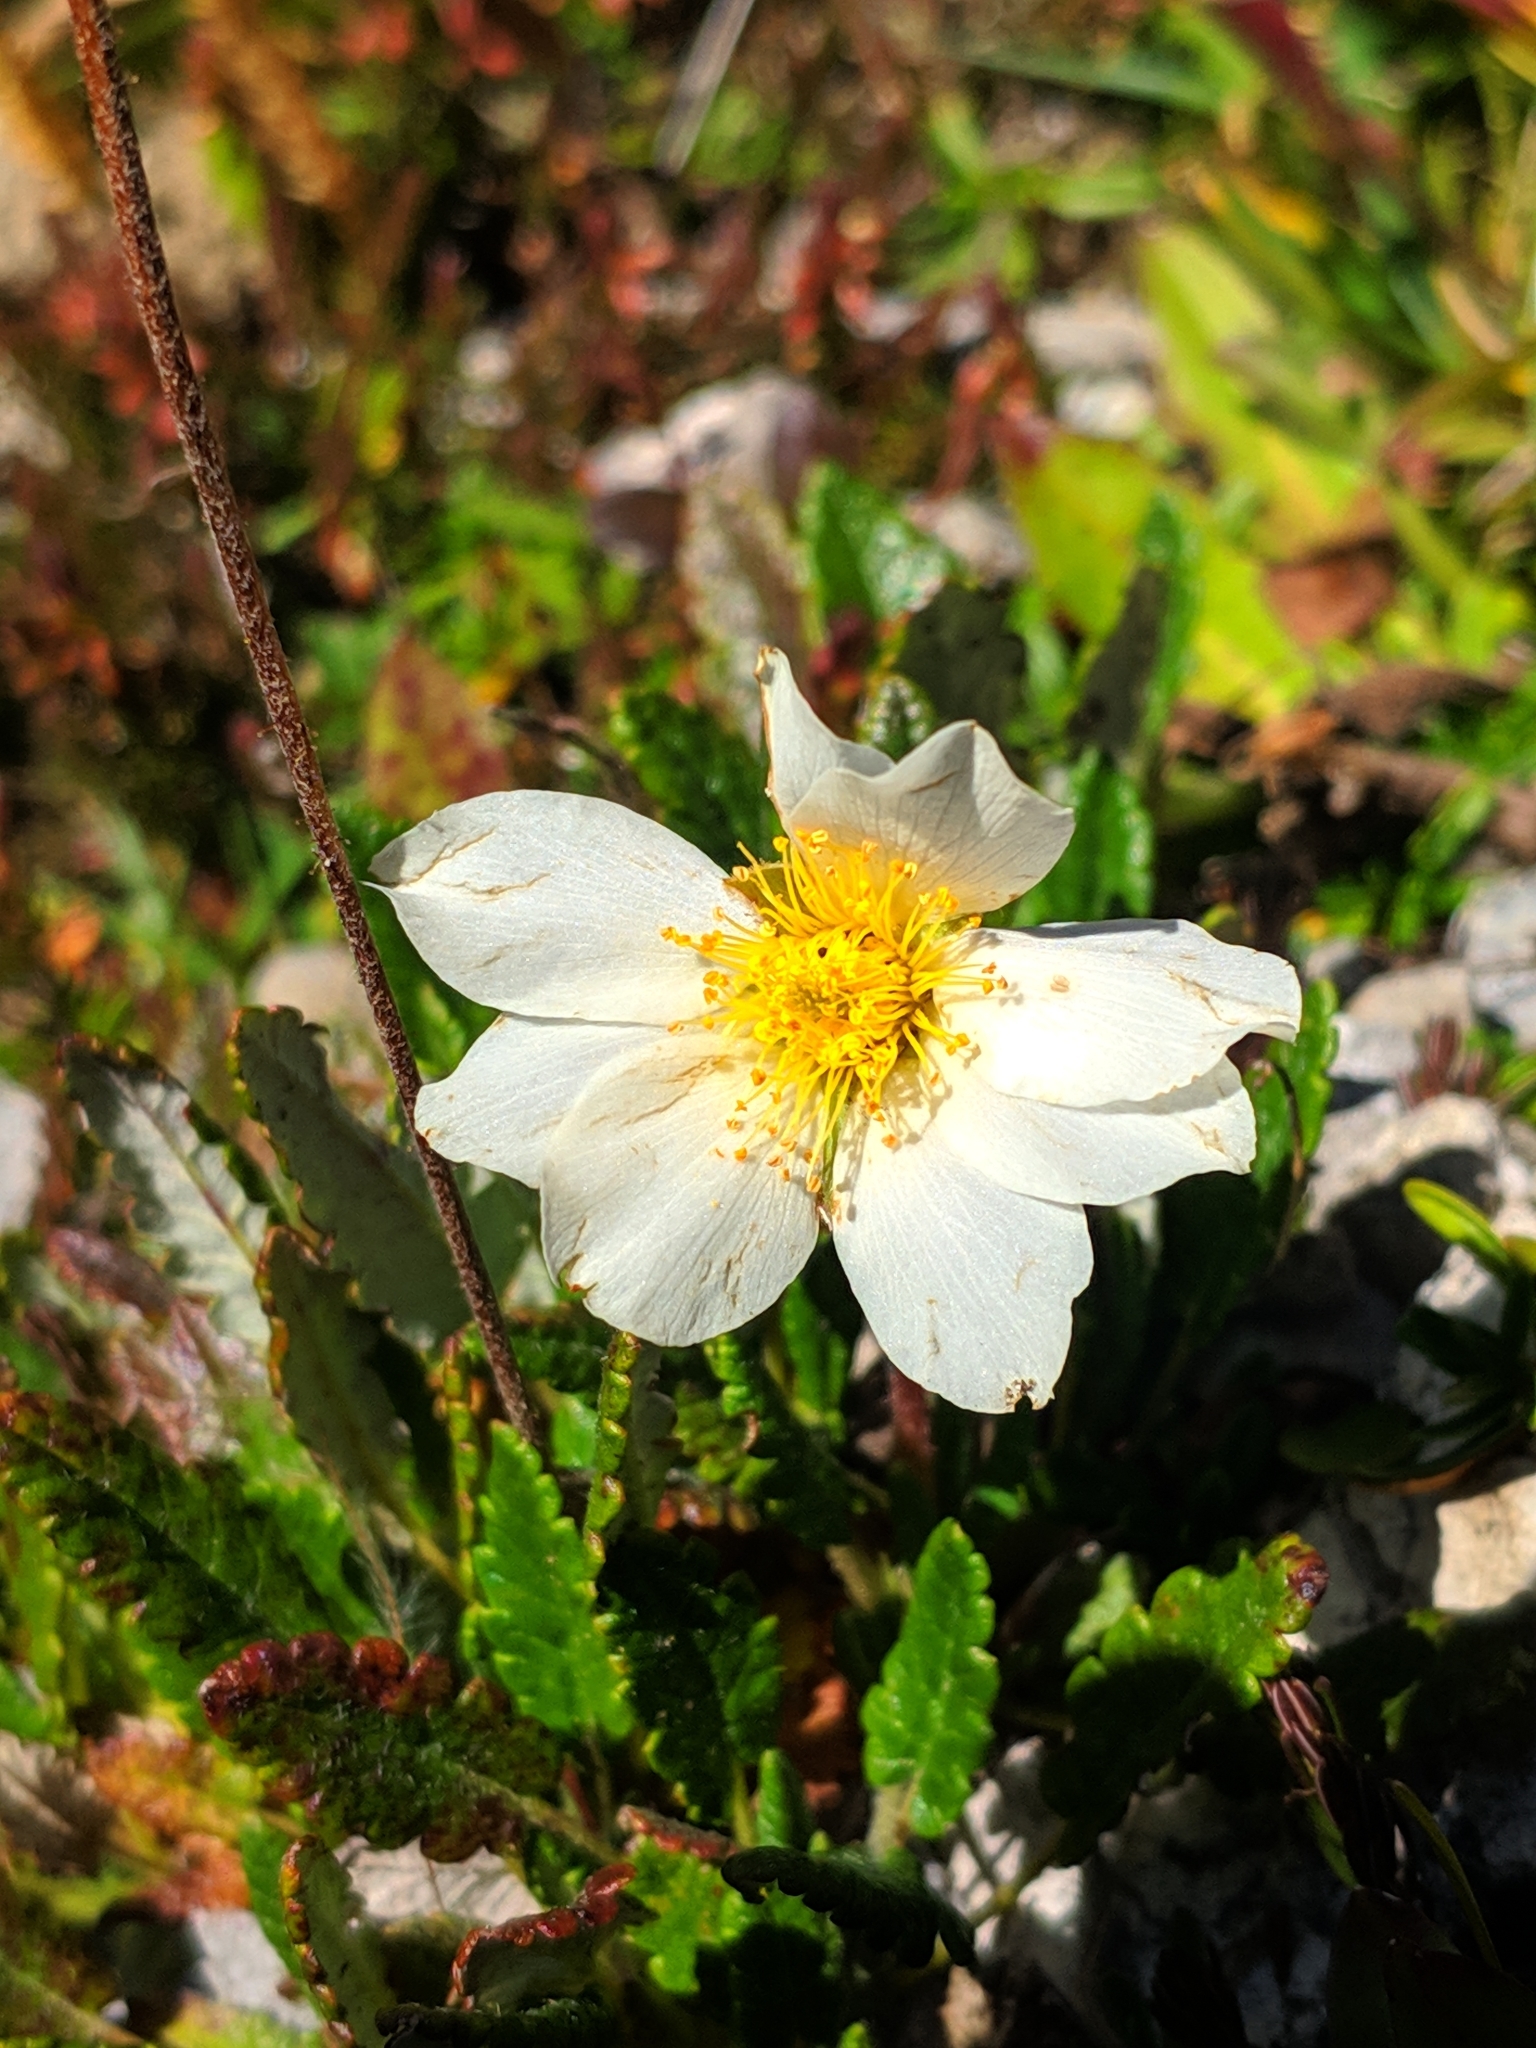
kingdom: Plantae
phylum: Tracheophyta
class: Magnoliopsida
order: Rosales
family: Rosaceae
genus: Dryas
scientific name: Dryas octopetala
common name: Eight-petal mountain-avens
